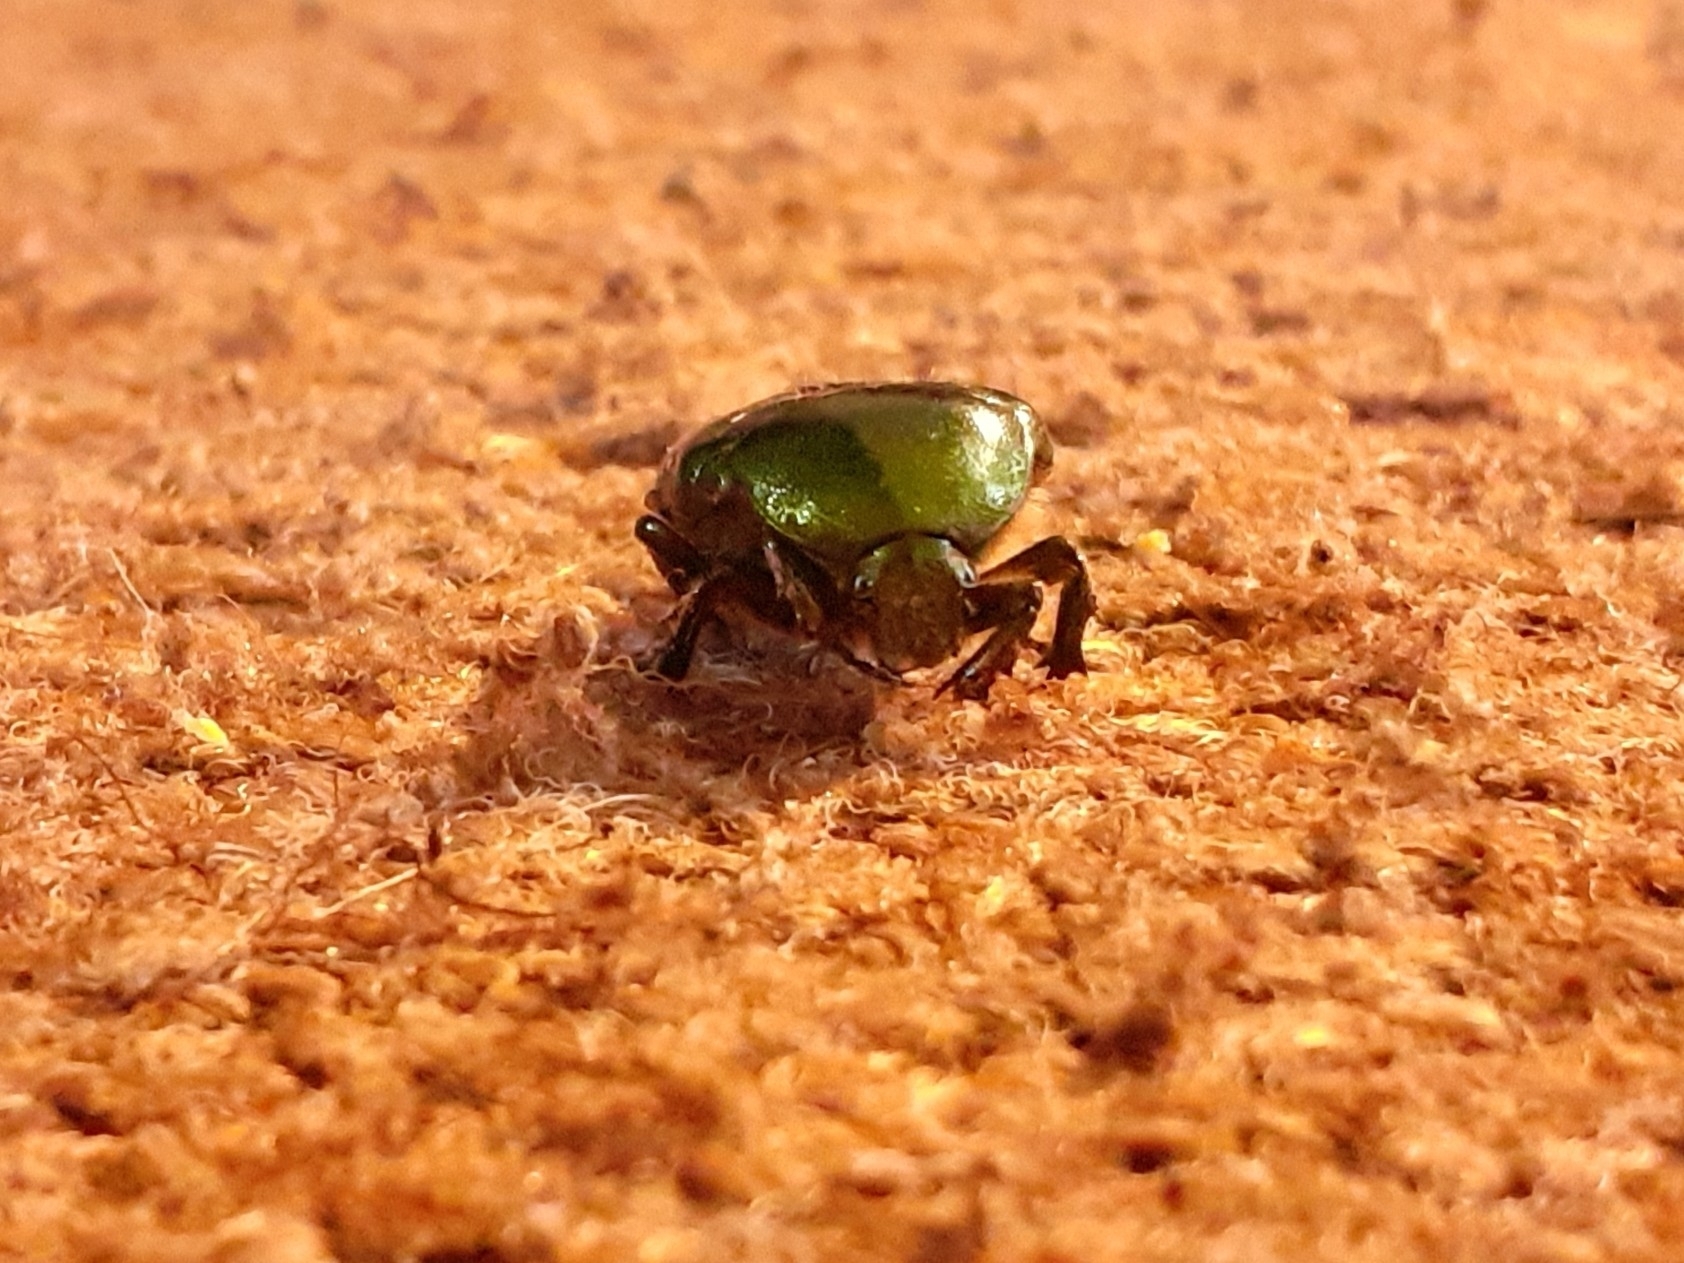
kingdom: Animalia
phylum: Arthropoda
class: Insecta
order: Coleoptera
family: Scarabaeidae
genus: Cetonia
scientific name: Cetonia aurata
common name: Rose chafer
